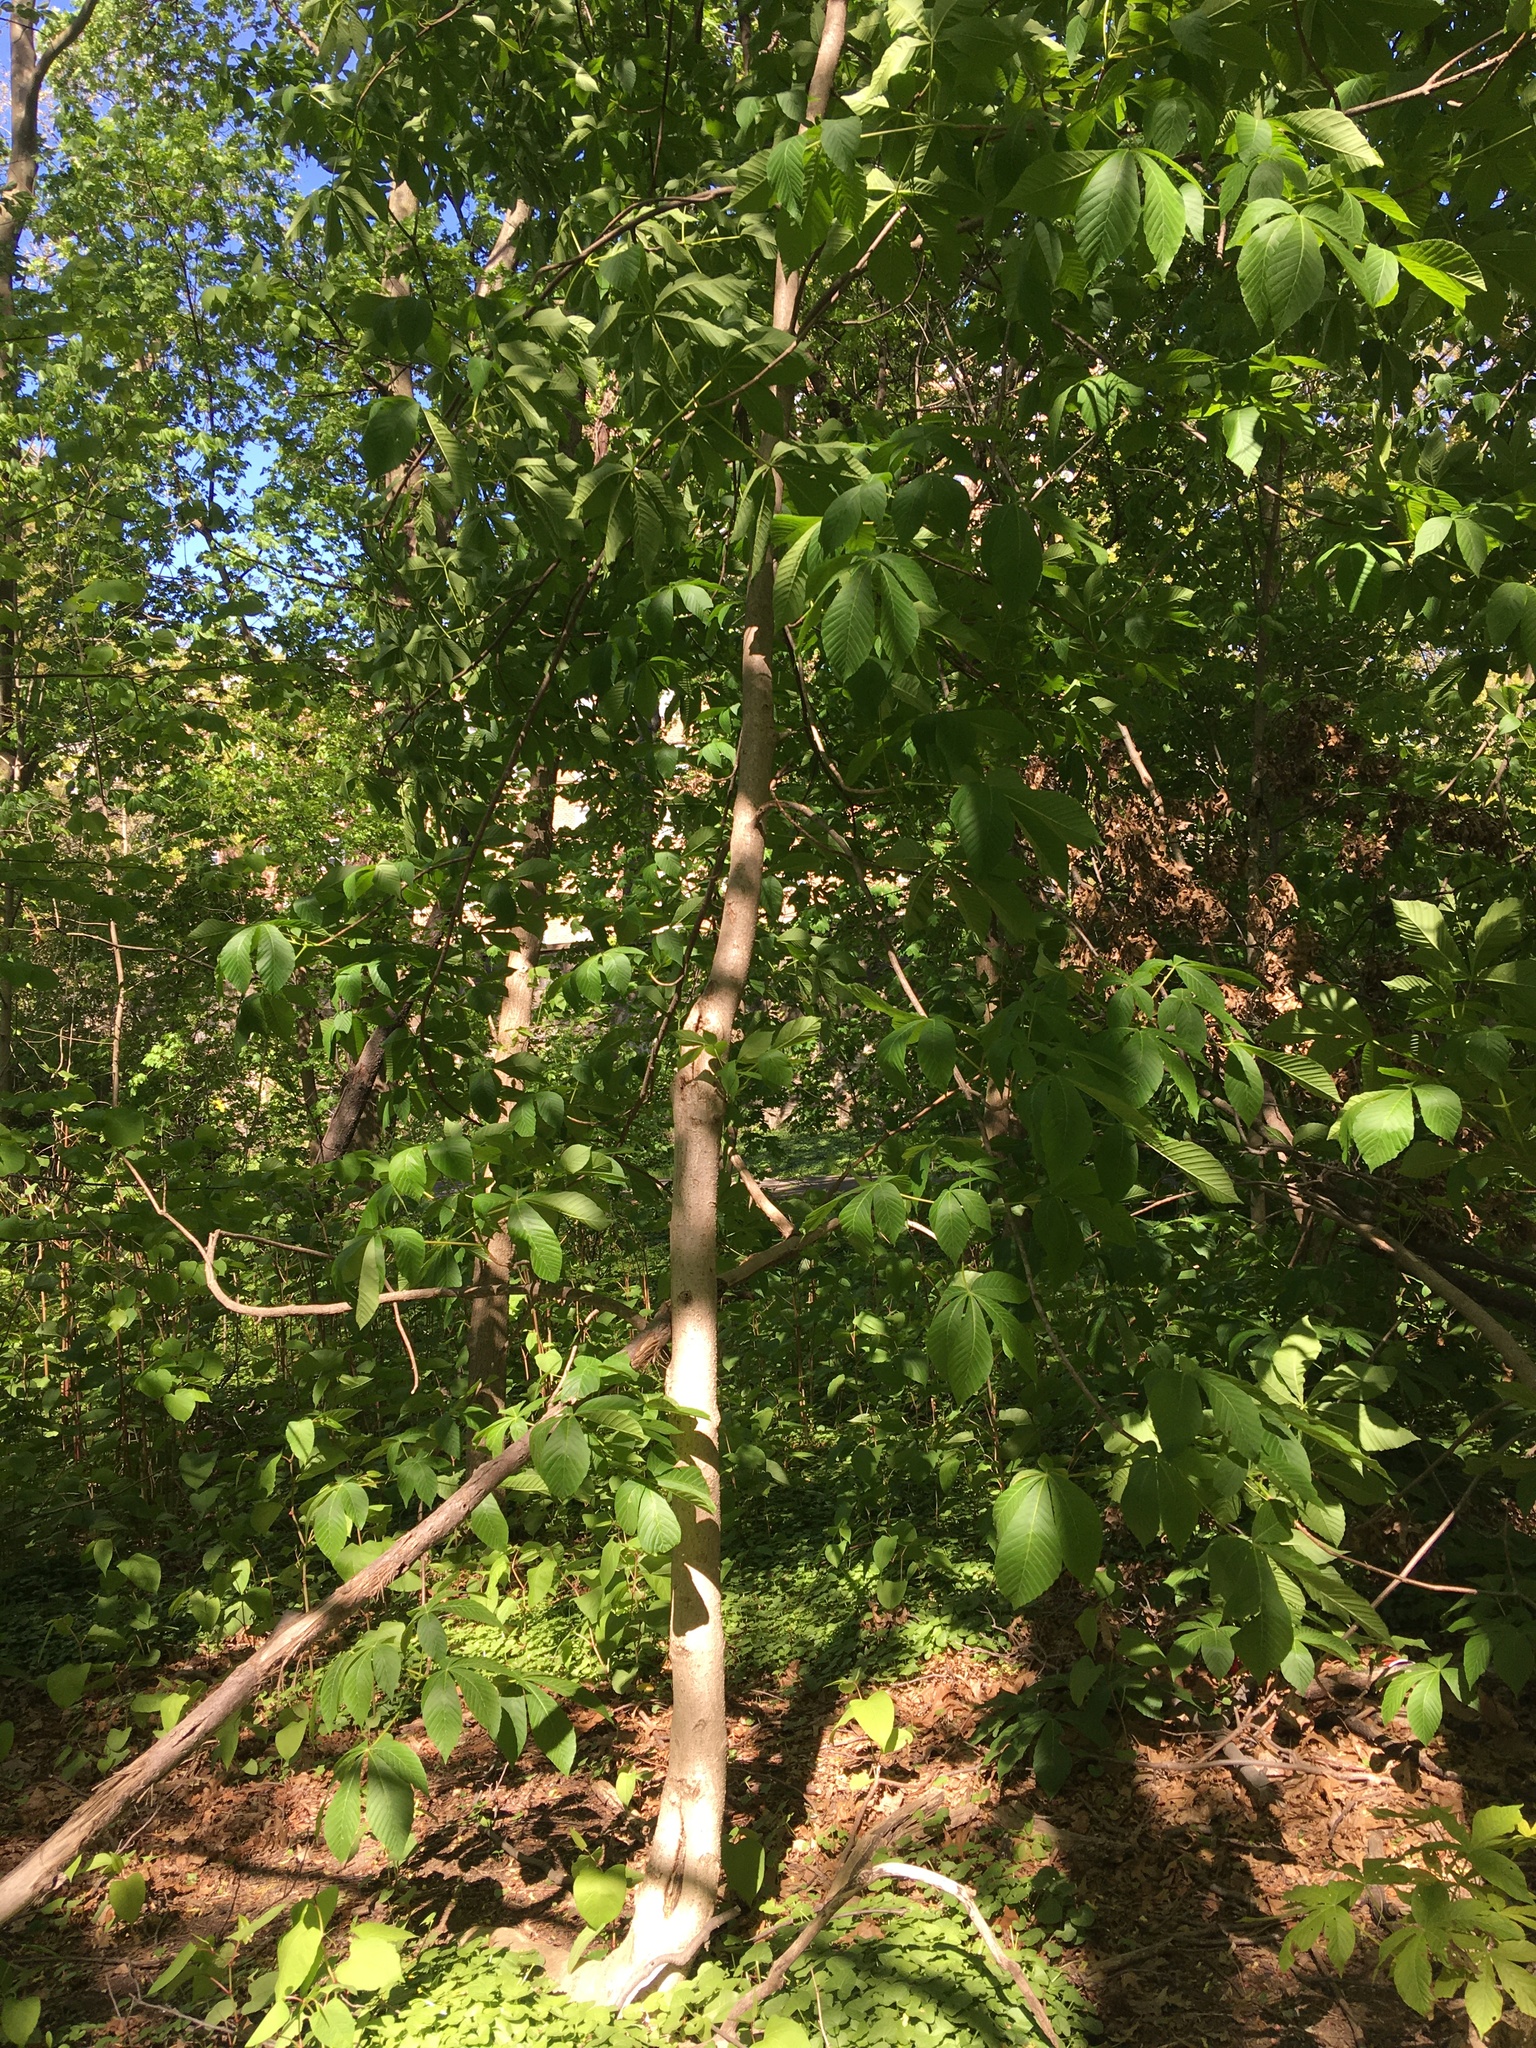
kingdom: Plantae
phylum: Tracheophyta
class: Magnoliopsida
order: Sapindales
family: Sapindaceae
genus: Aesculus
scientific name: Aesculus flava
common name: Yellow buckeye
